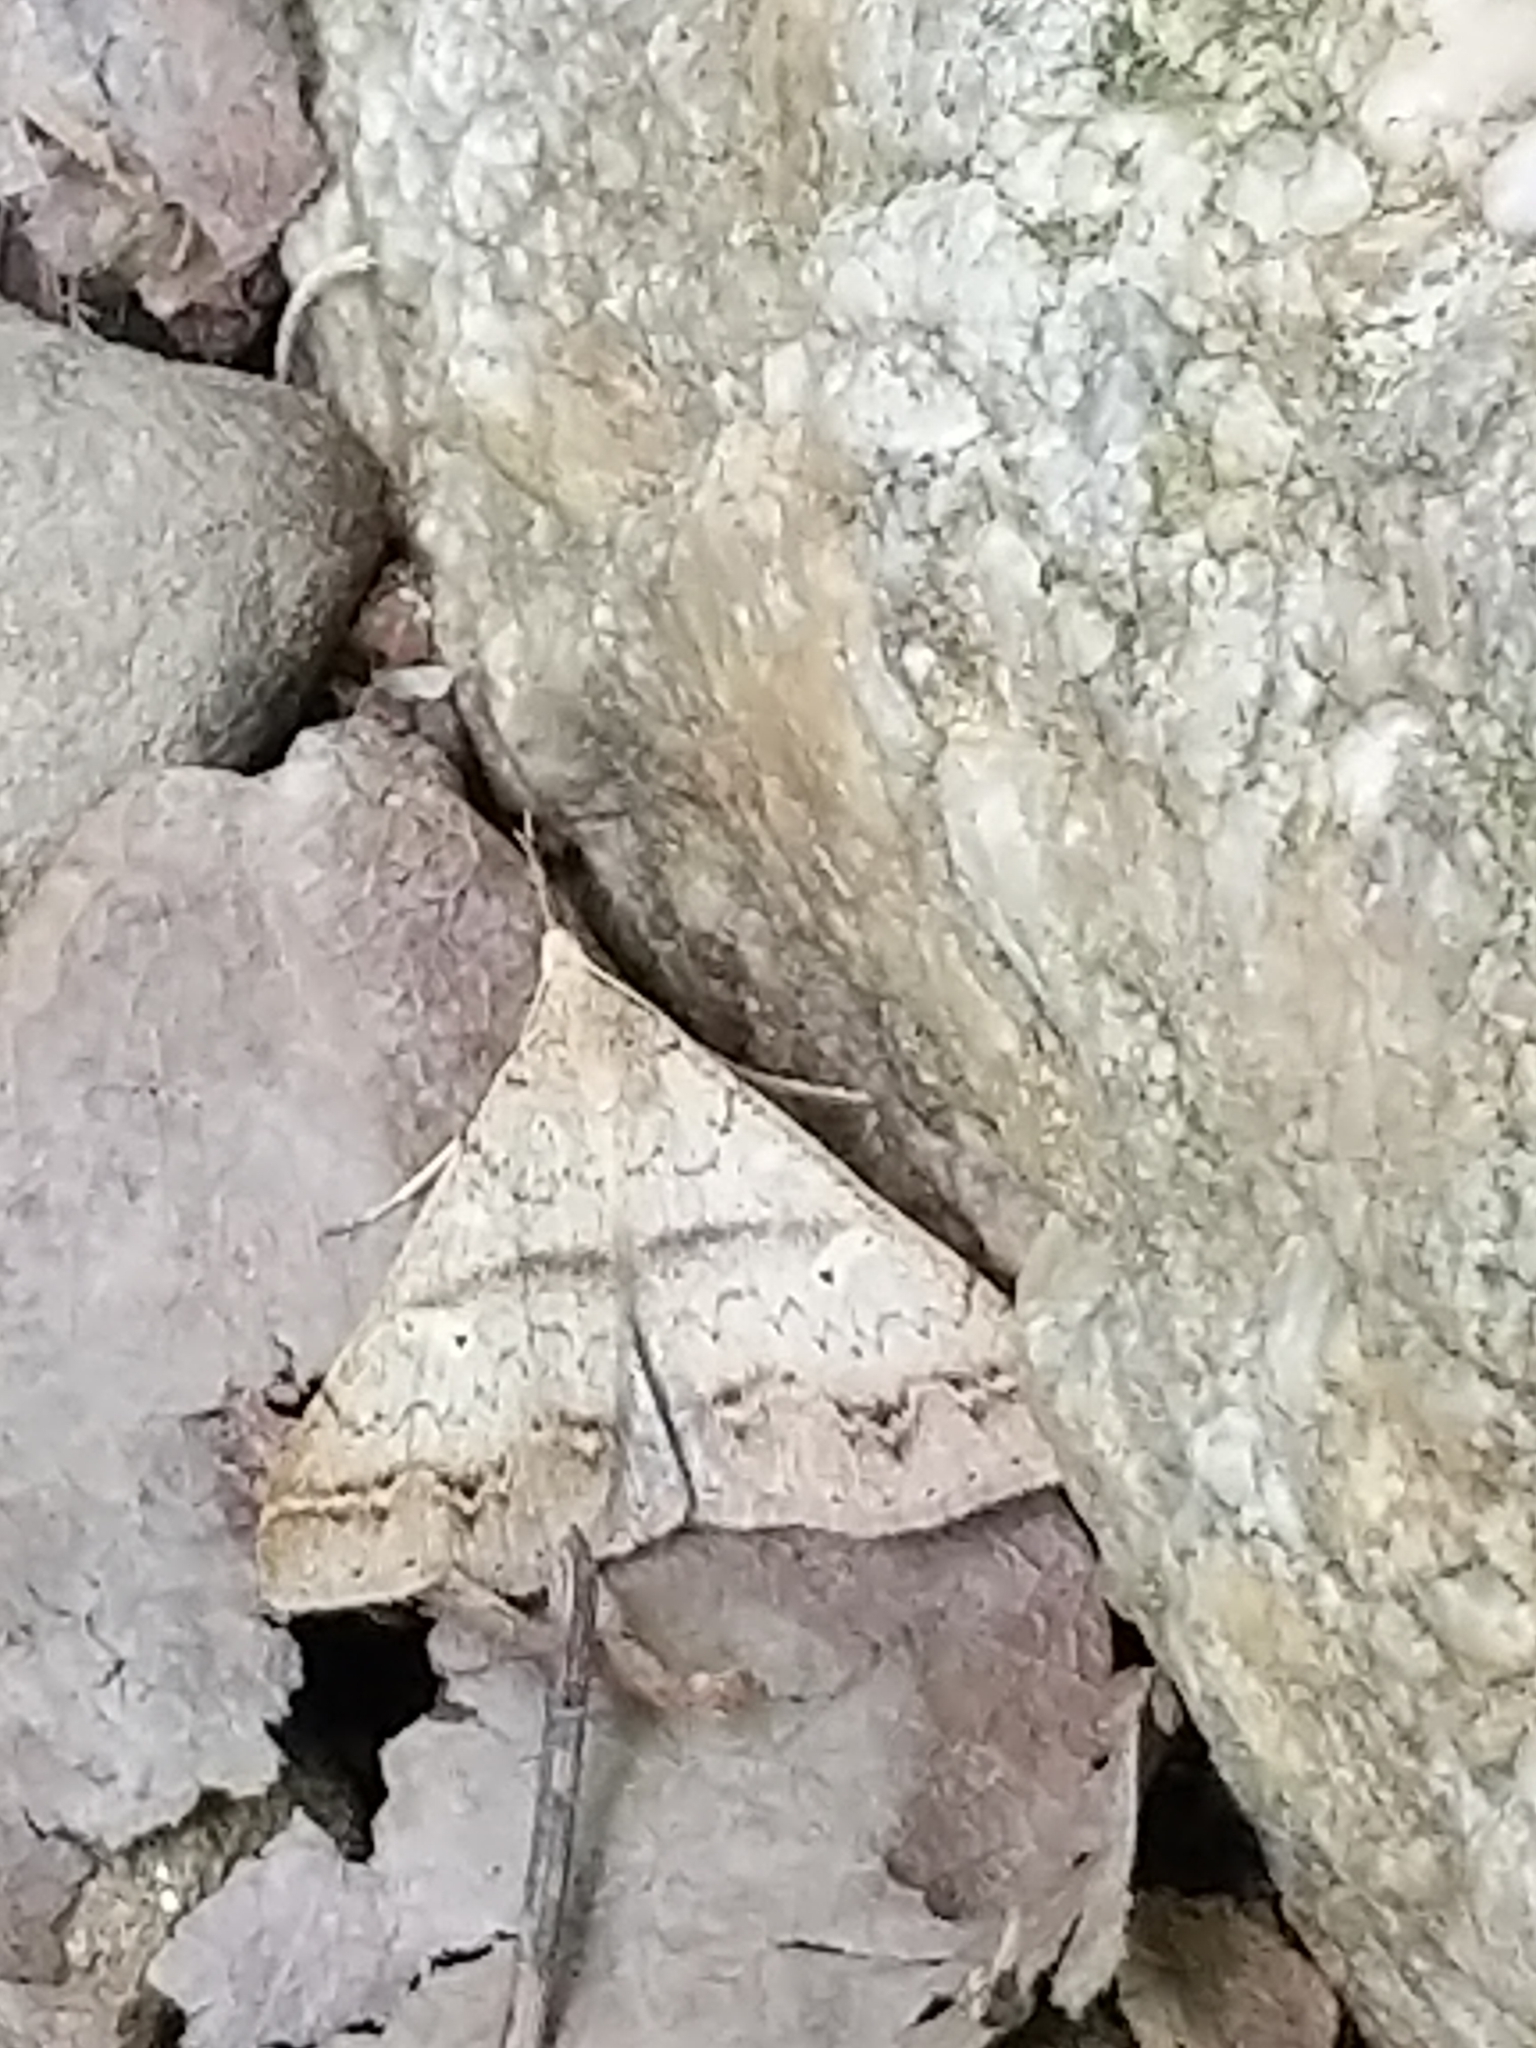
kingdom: Animalia
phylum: Arthropoda
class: Insecta
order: Lepidoptera
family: Erebidae
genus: Renia
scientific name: Renia discoloralis
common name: Discolored renia moth
